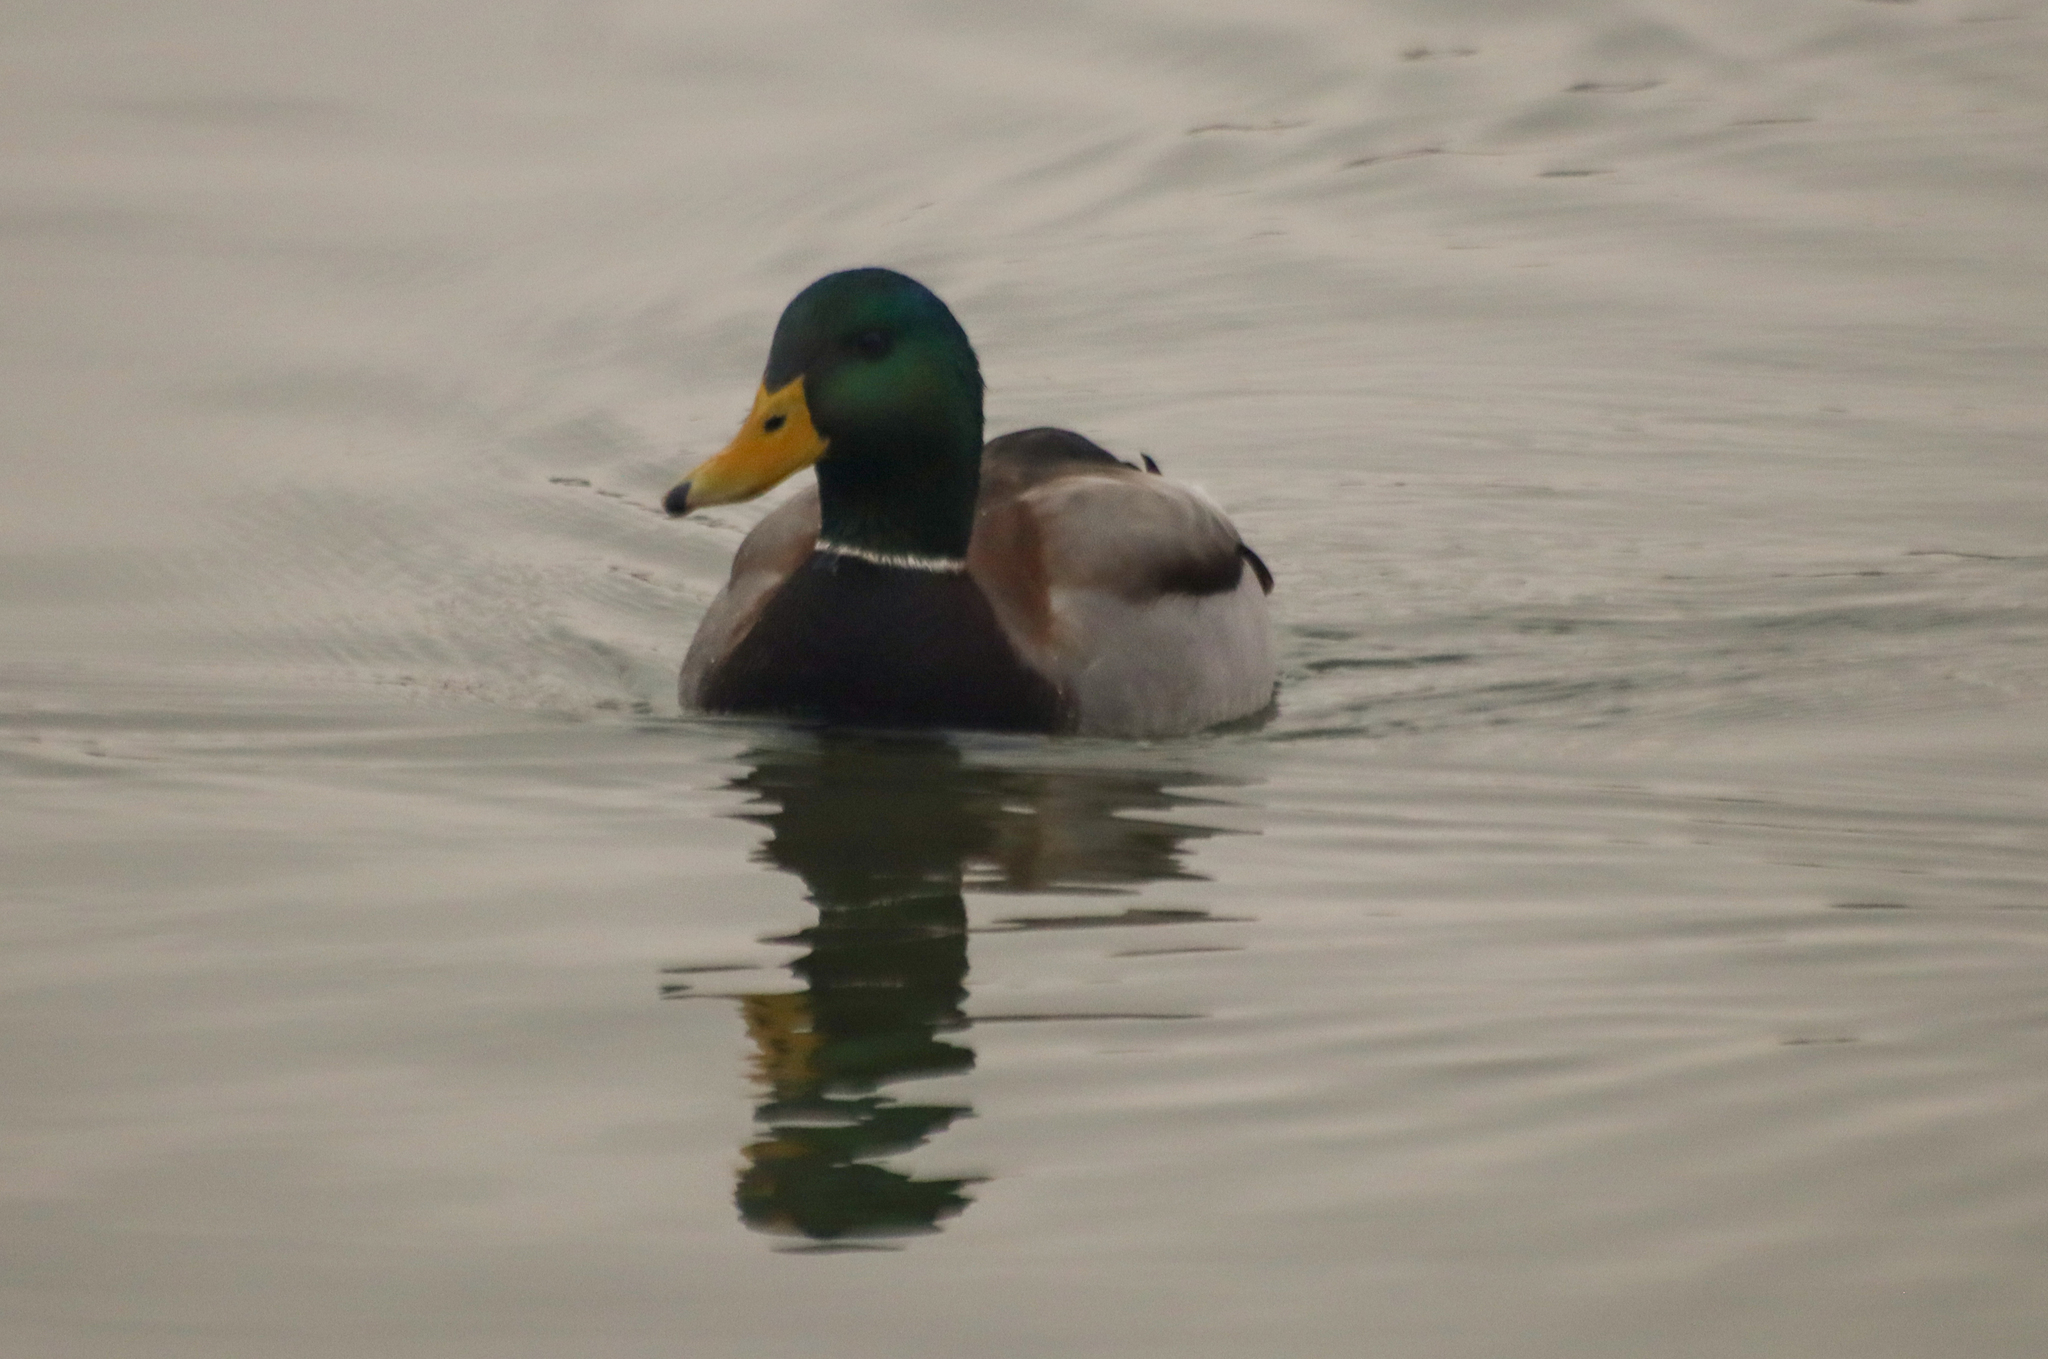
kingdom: Animalia
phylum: Chordata
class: Aves
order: Anseriformes
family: Anatidae
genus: Anas
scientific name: Anas platyrhynchos
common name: Mallard
